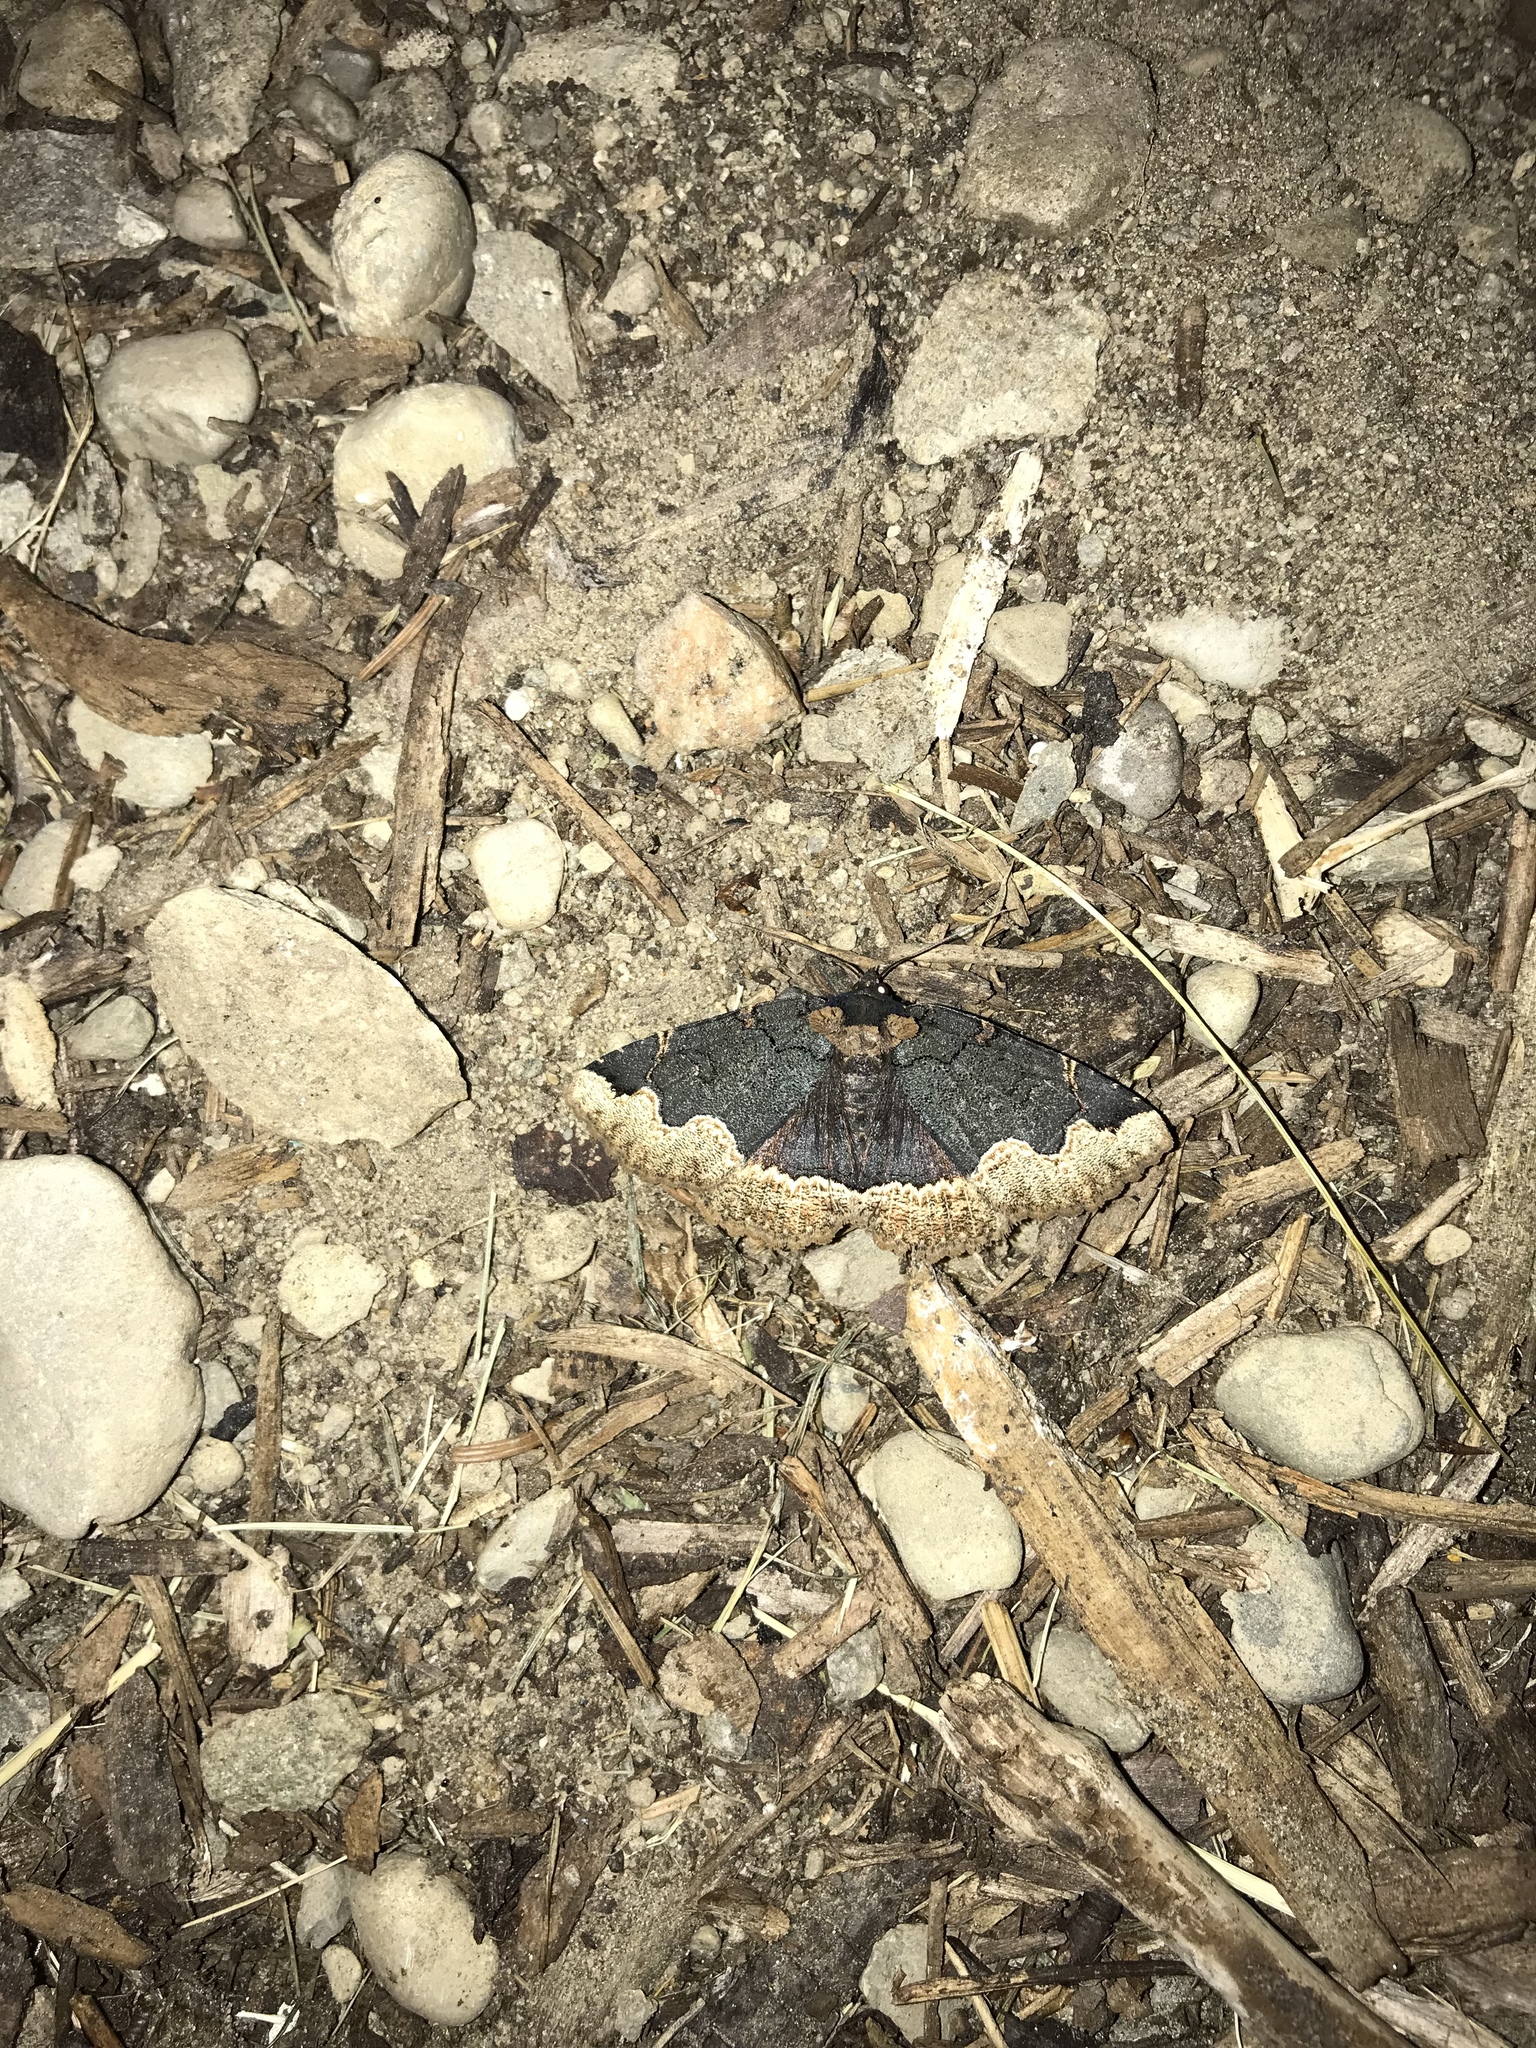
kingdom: Animalia
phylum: Arthropoda
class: Insecta
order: Lepidoptera
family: Erebidae
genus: Zale
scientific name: Zale horrida
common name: Horrid zale moth
